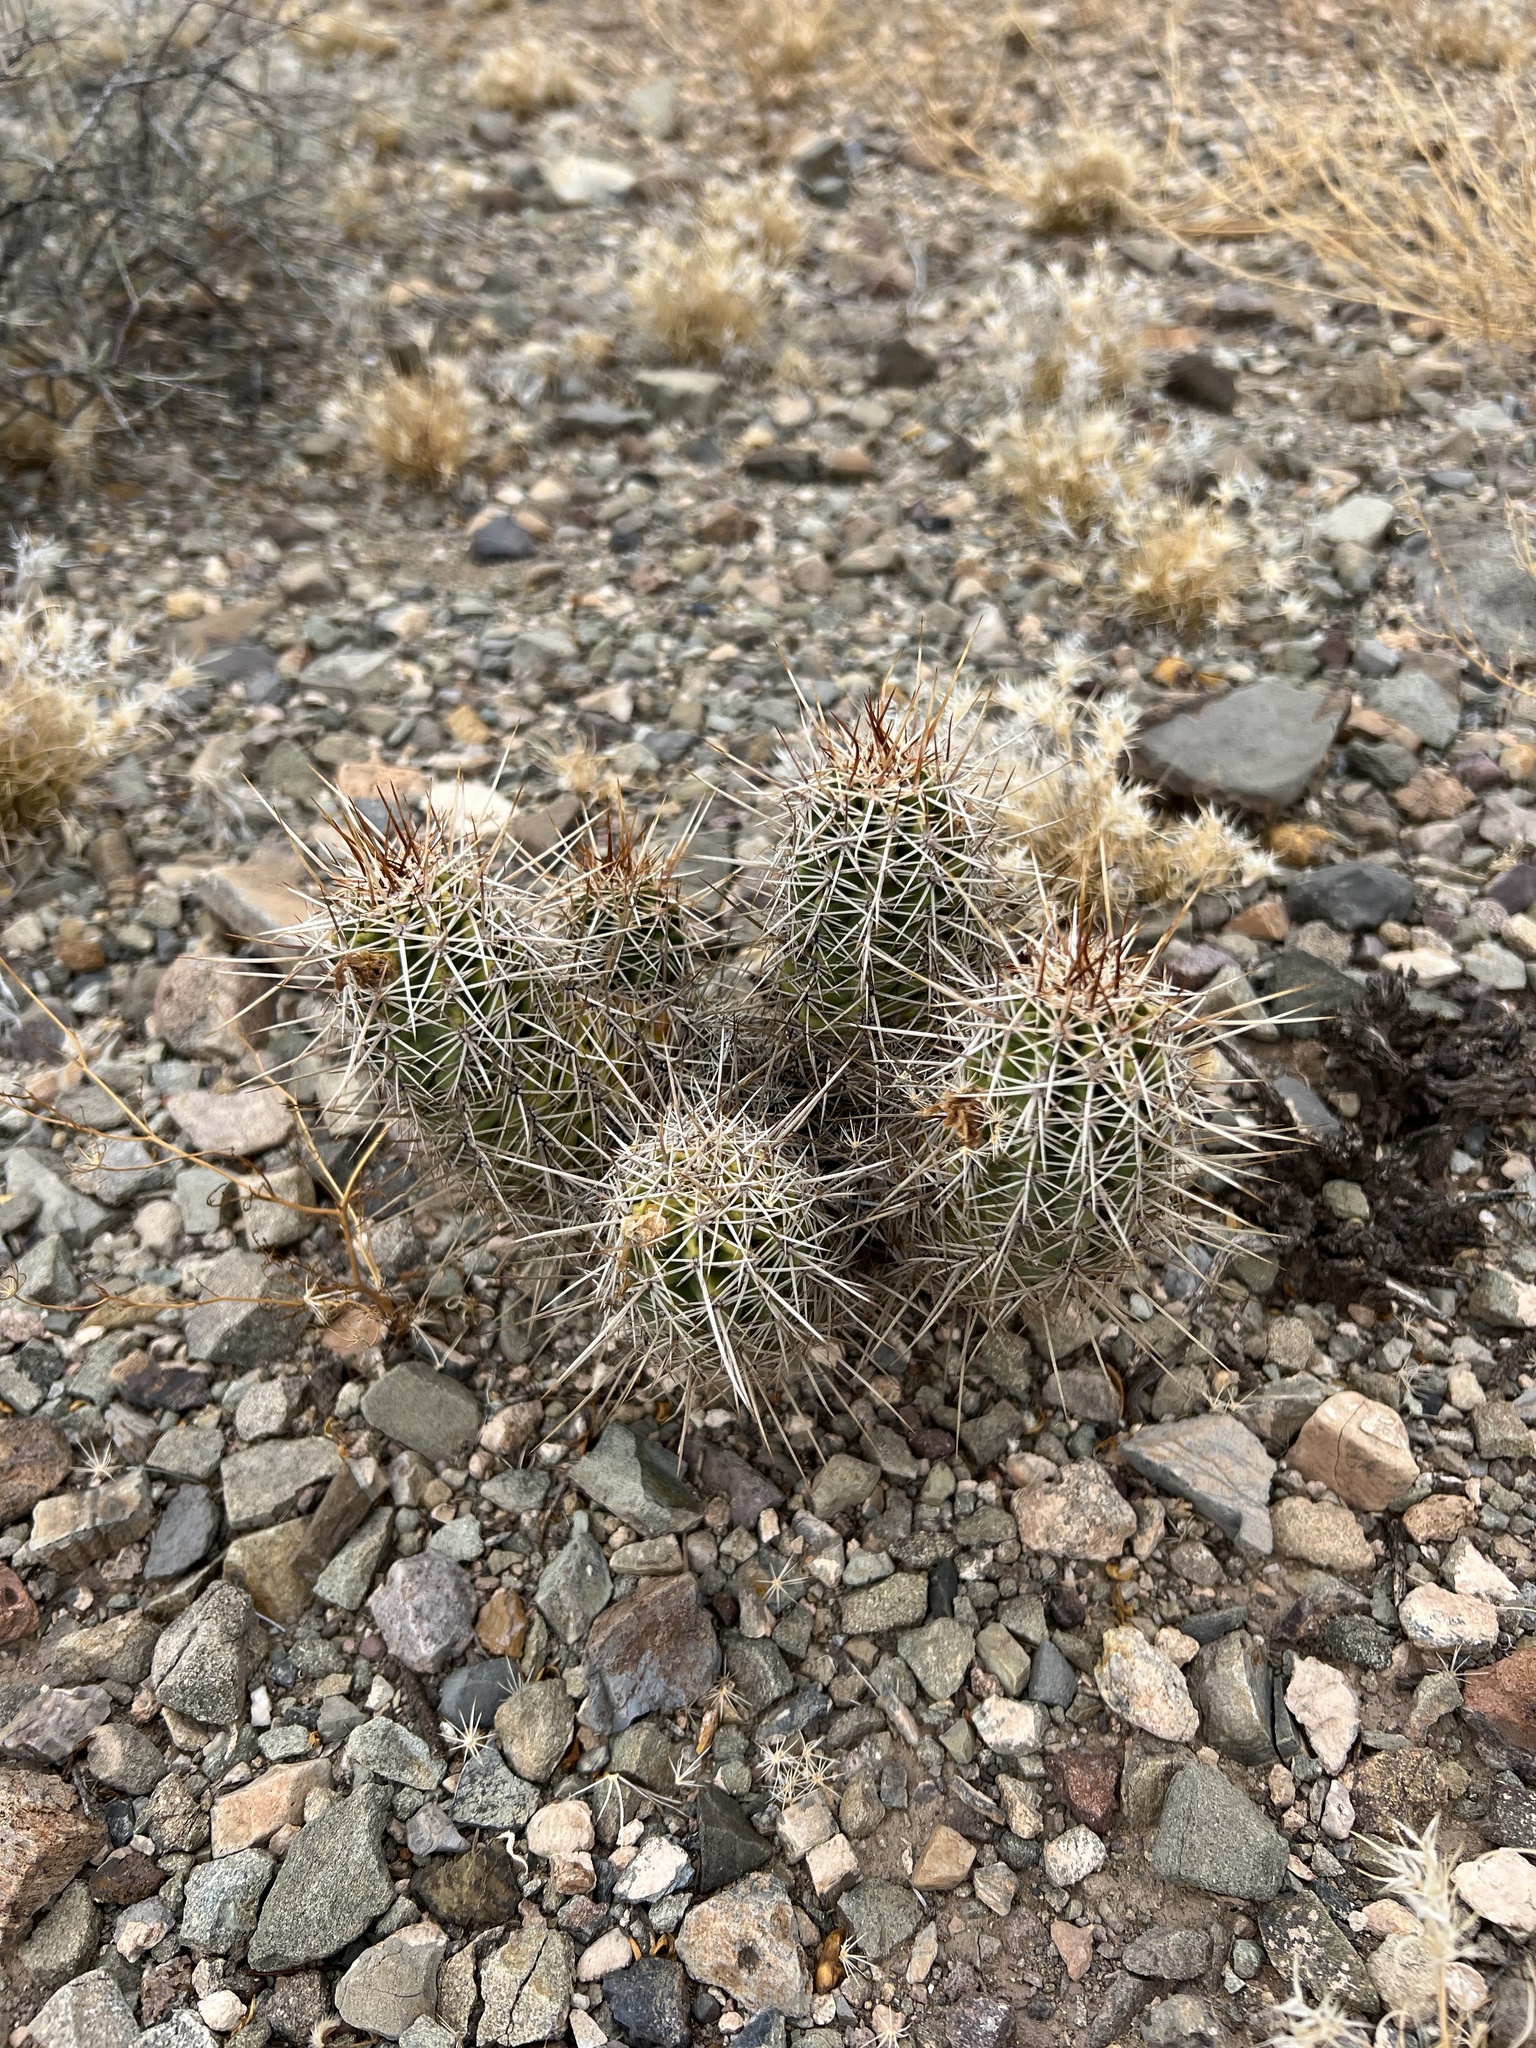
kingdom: Plantae
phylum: Tracheophyta
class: Magnoliopsida
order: Caryophyllales
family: Cactaceae
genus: Echinocereus
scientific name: Echinocereus fasciculatus
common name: Bundle hedgehog
